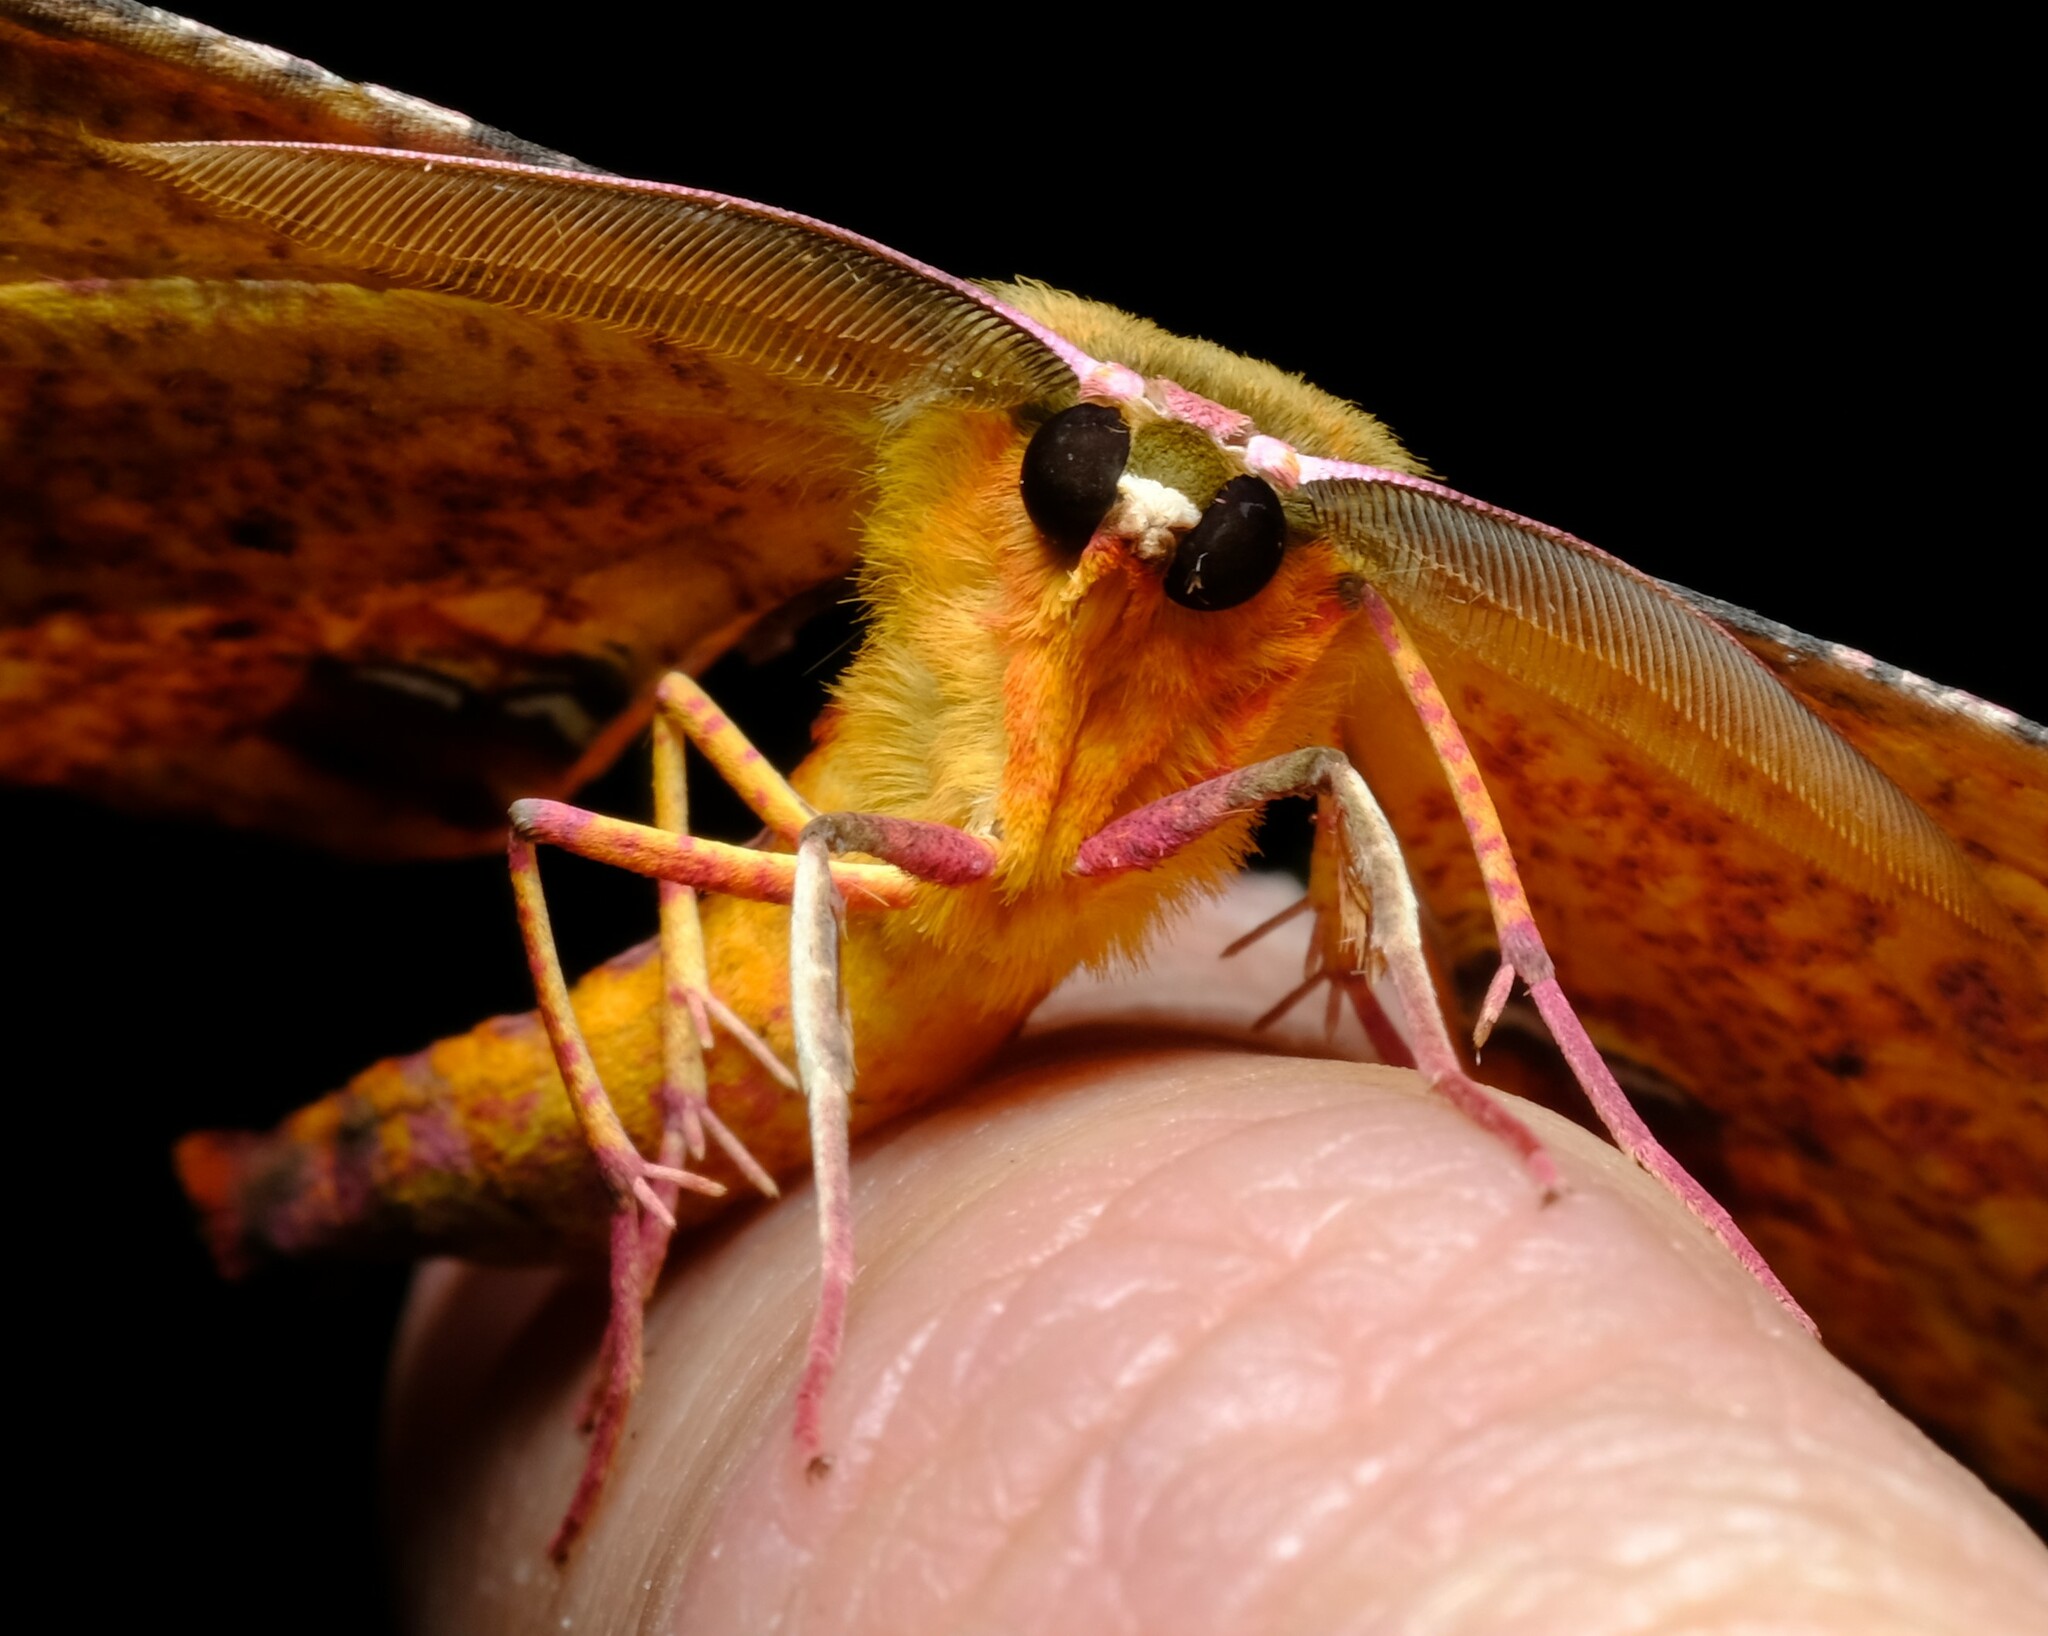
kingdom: Animalia
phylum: Arthropoda
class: Insecta
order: Lepidoptera
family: Geometridae
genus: Parepisparis
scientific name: Parepisparis lutosaria
